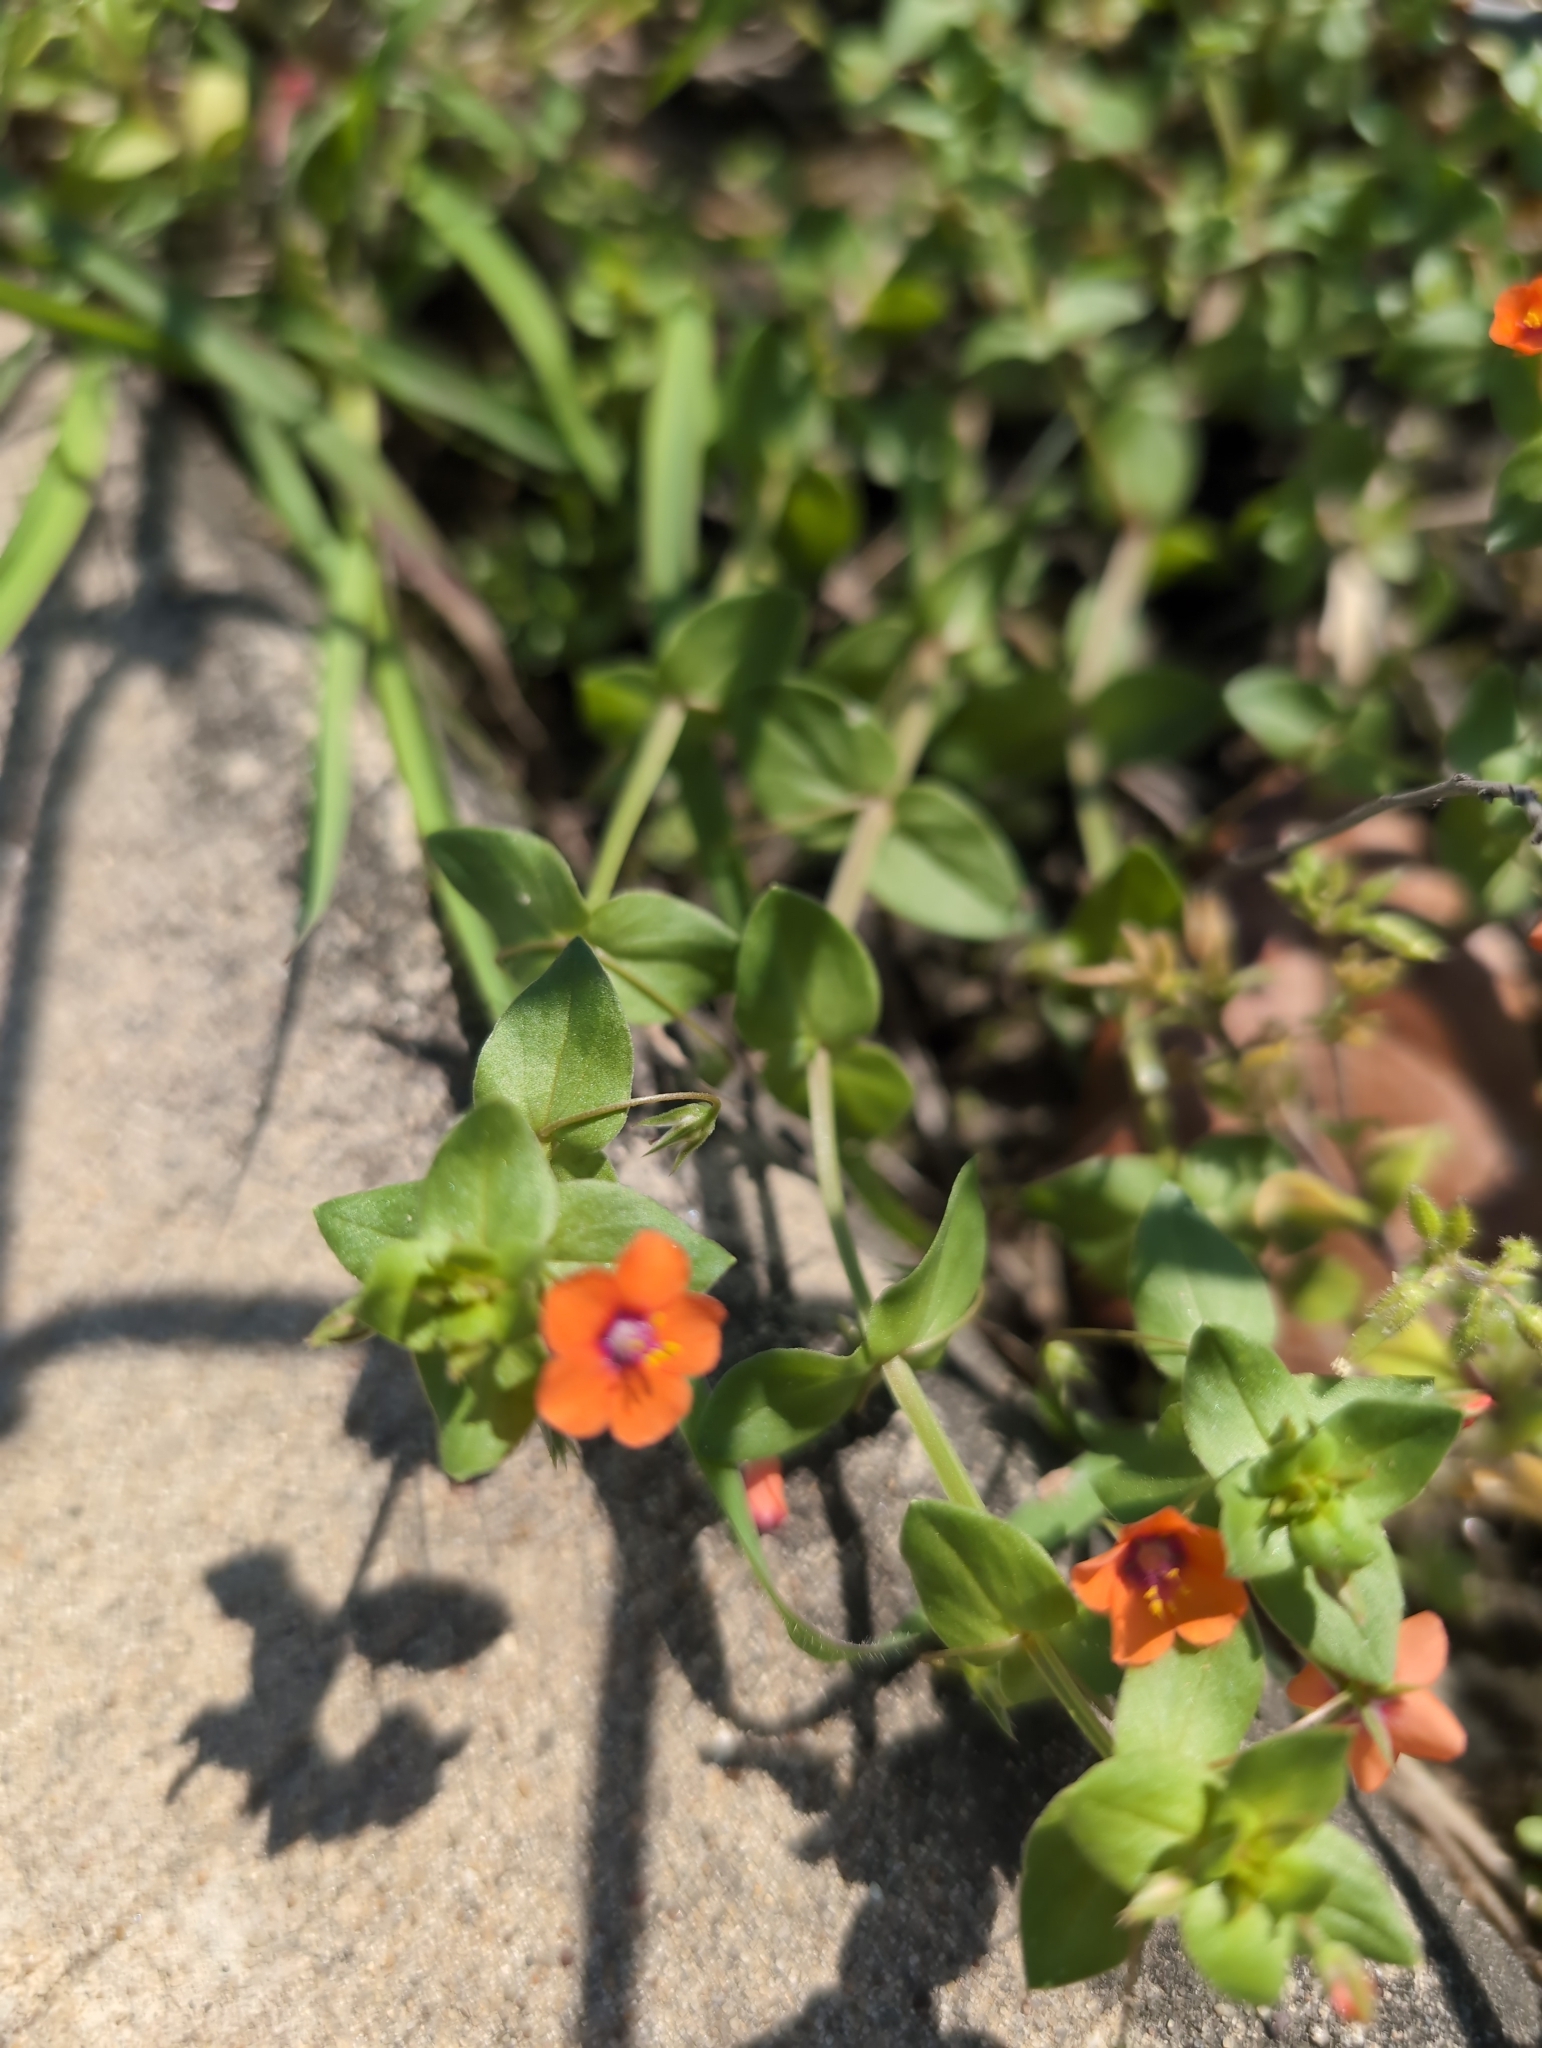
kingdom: Plantae
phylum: Tracheophyta
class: Magnoliopsida
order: Ericales
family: Primulaceae
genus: Lysimachia
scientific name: Lysimachia arvensis
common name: Scarlet pimpernel
